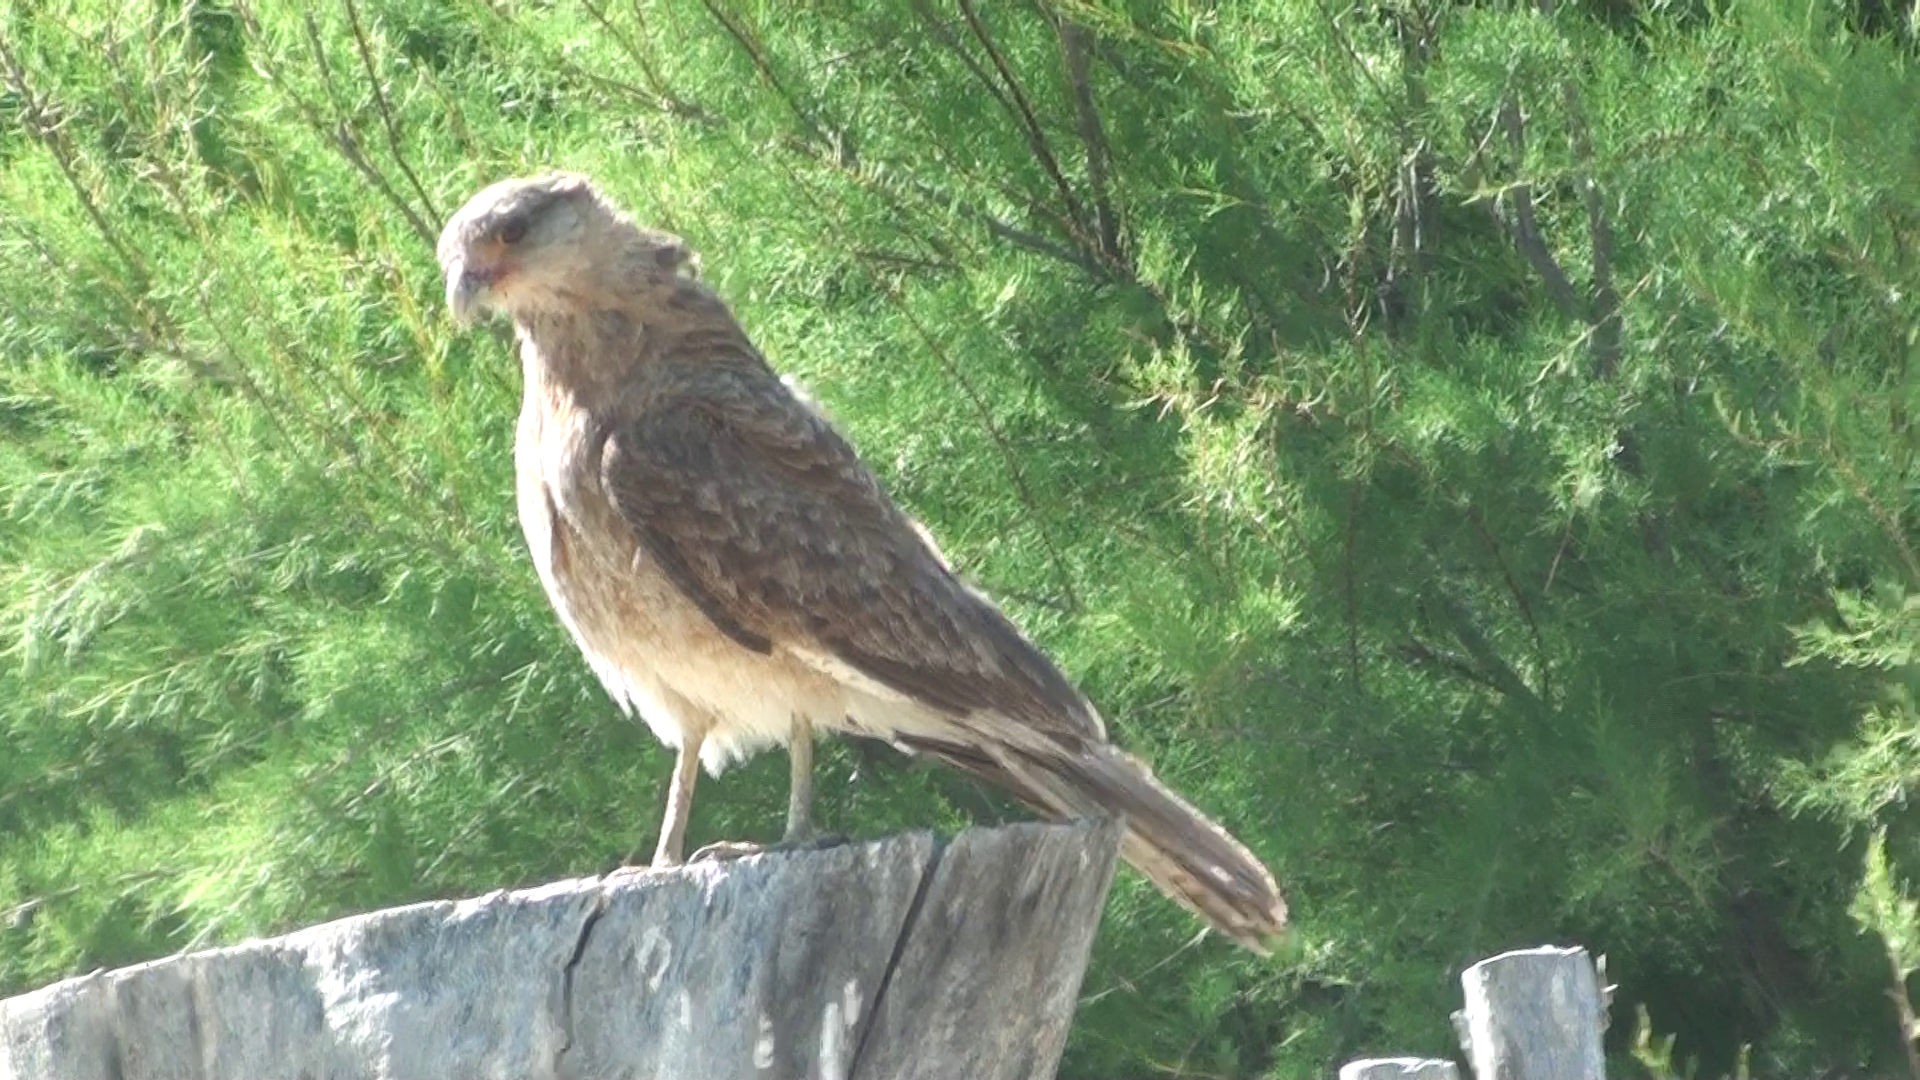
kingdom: Animalia
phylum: Chordata
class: Aves
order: Falconiformes
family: Falconidae
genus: Daptrius
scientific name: Daptrius
